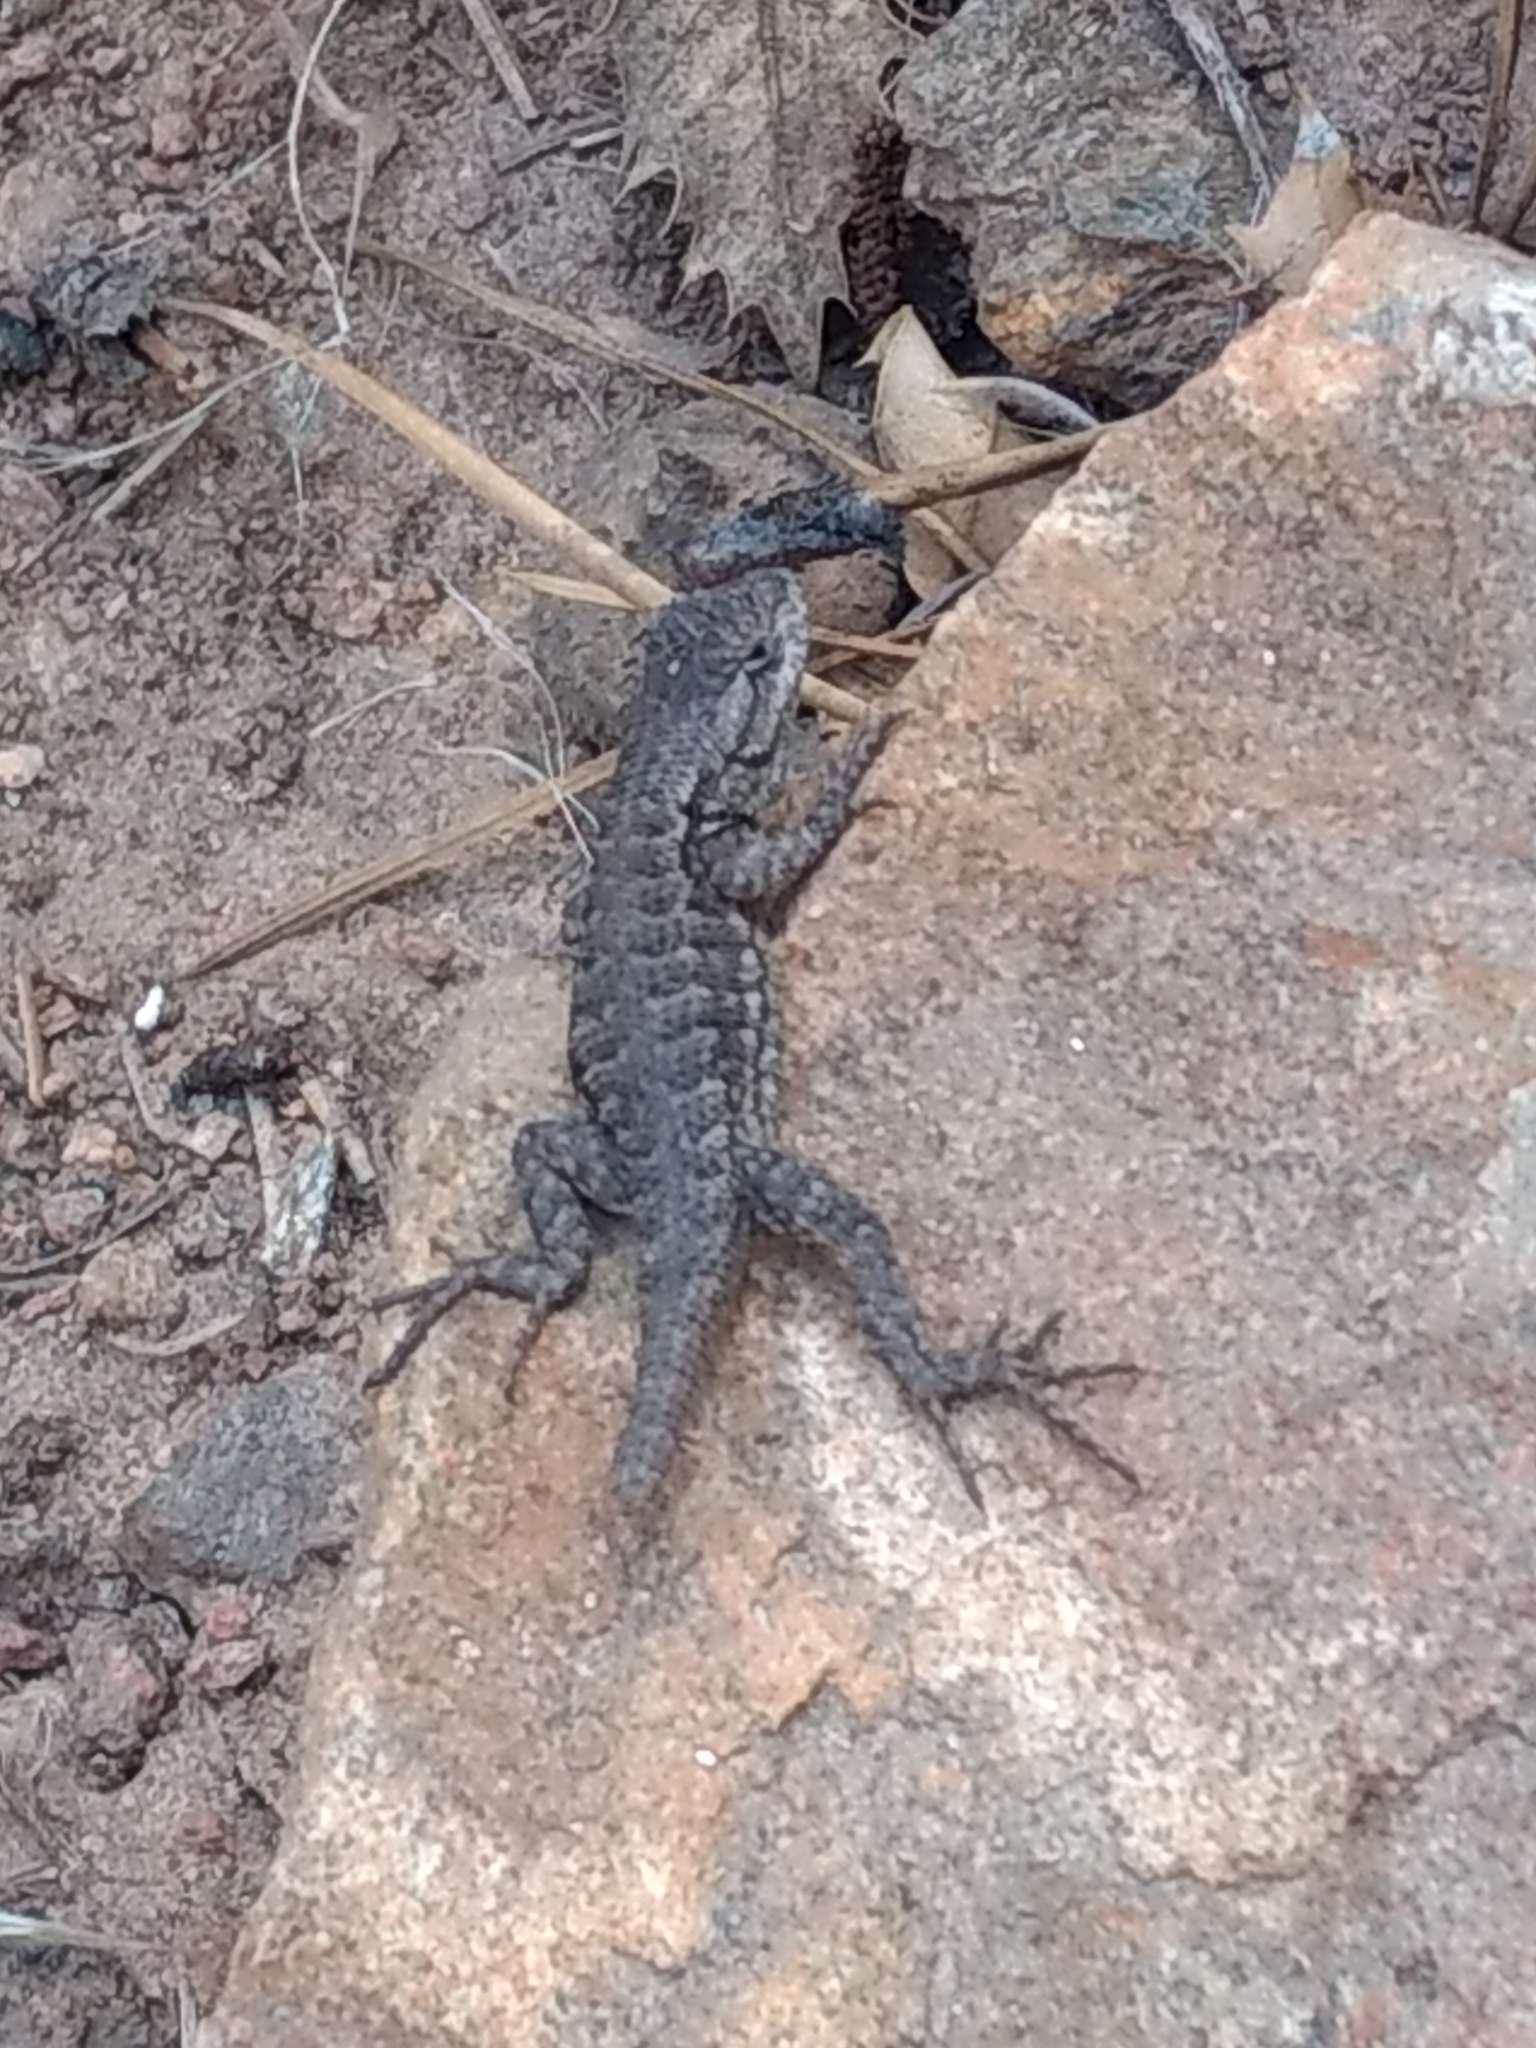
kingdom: Animalia
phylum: Chordata
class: Squamata
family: Phrynosomatidae
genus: Sceloporus
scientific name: Sceloporus occidentalis
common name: Western fence lizard
